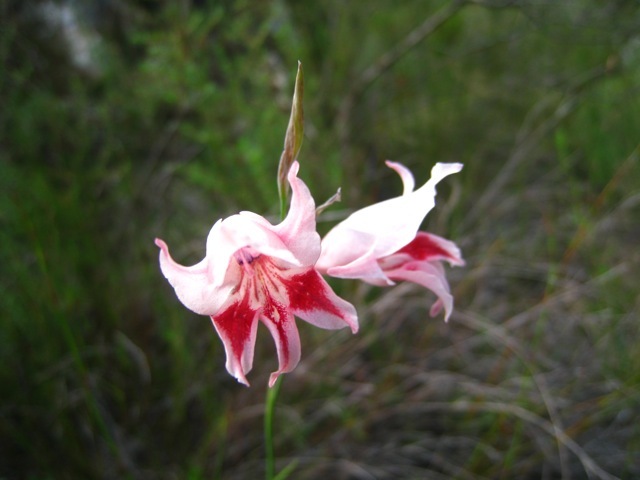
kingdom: Plantae
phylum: Tracheophyta
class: Liliopsida
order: Asparagales
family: Iridaceae
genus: Gladiolus
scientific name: Gladiolus nigromontanus
